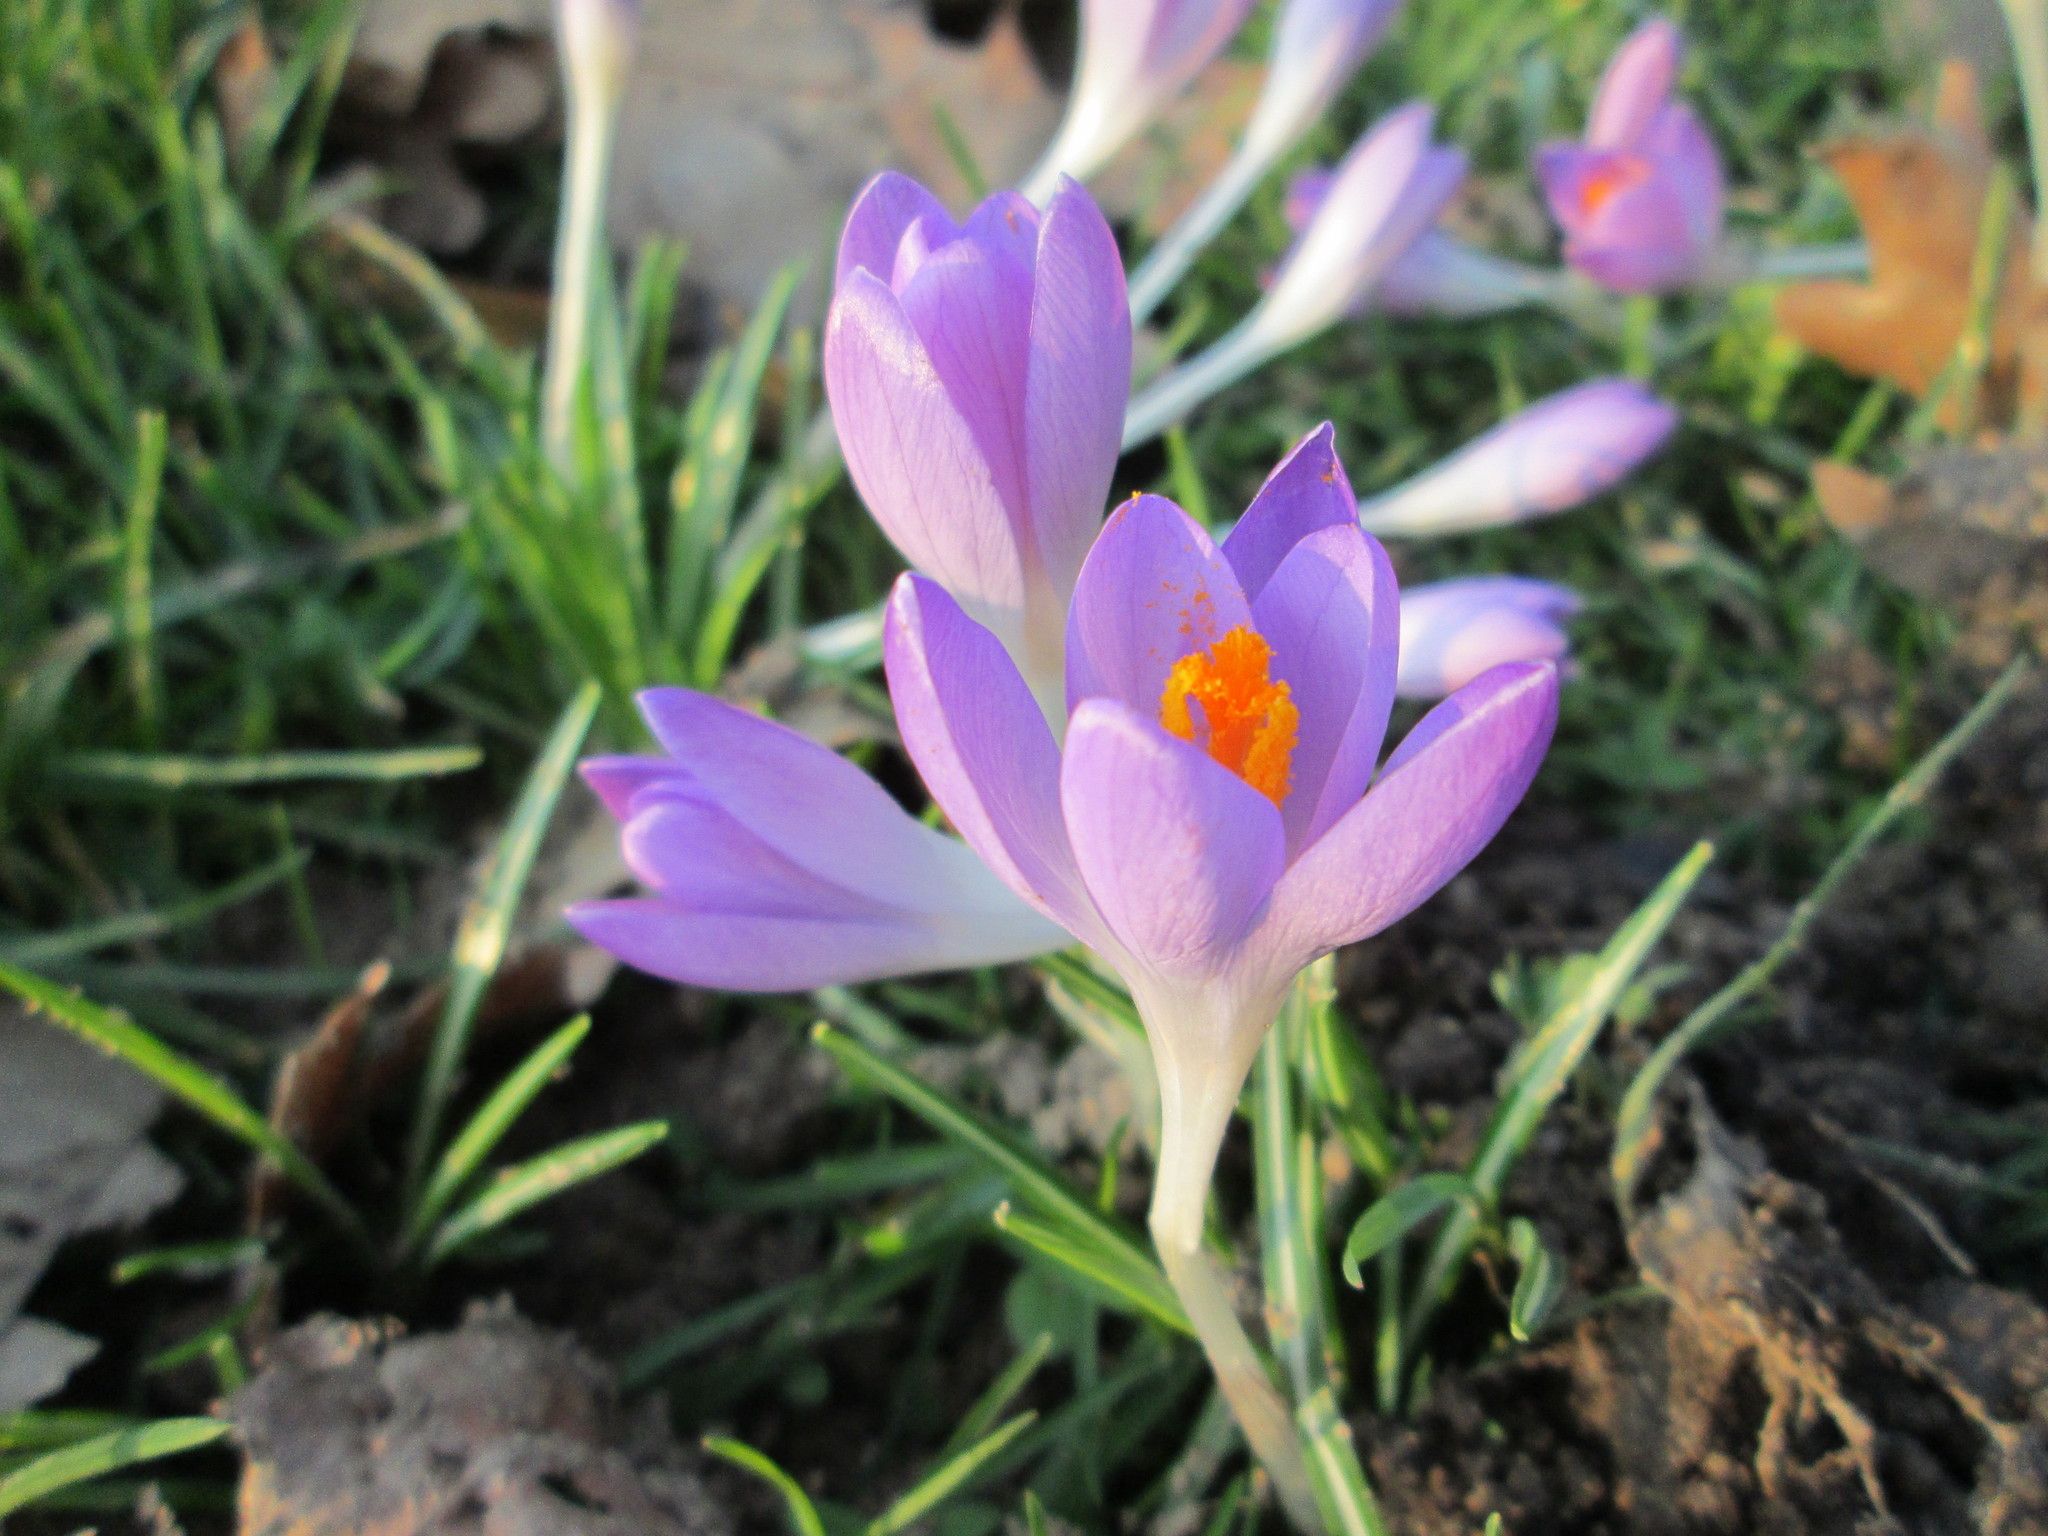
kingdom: Plantae
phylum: Tracheophyta
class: Liliopsida
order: Asparagales
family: Iridaceae
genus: Crocus
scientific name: Crocus tommasinianus
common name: Early crocus
